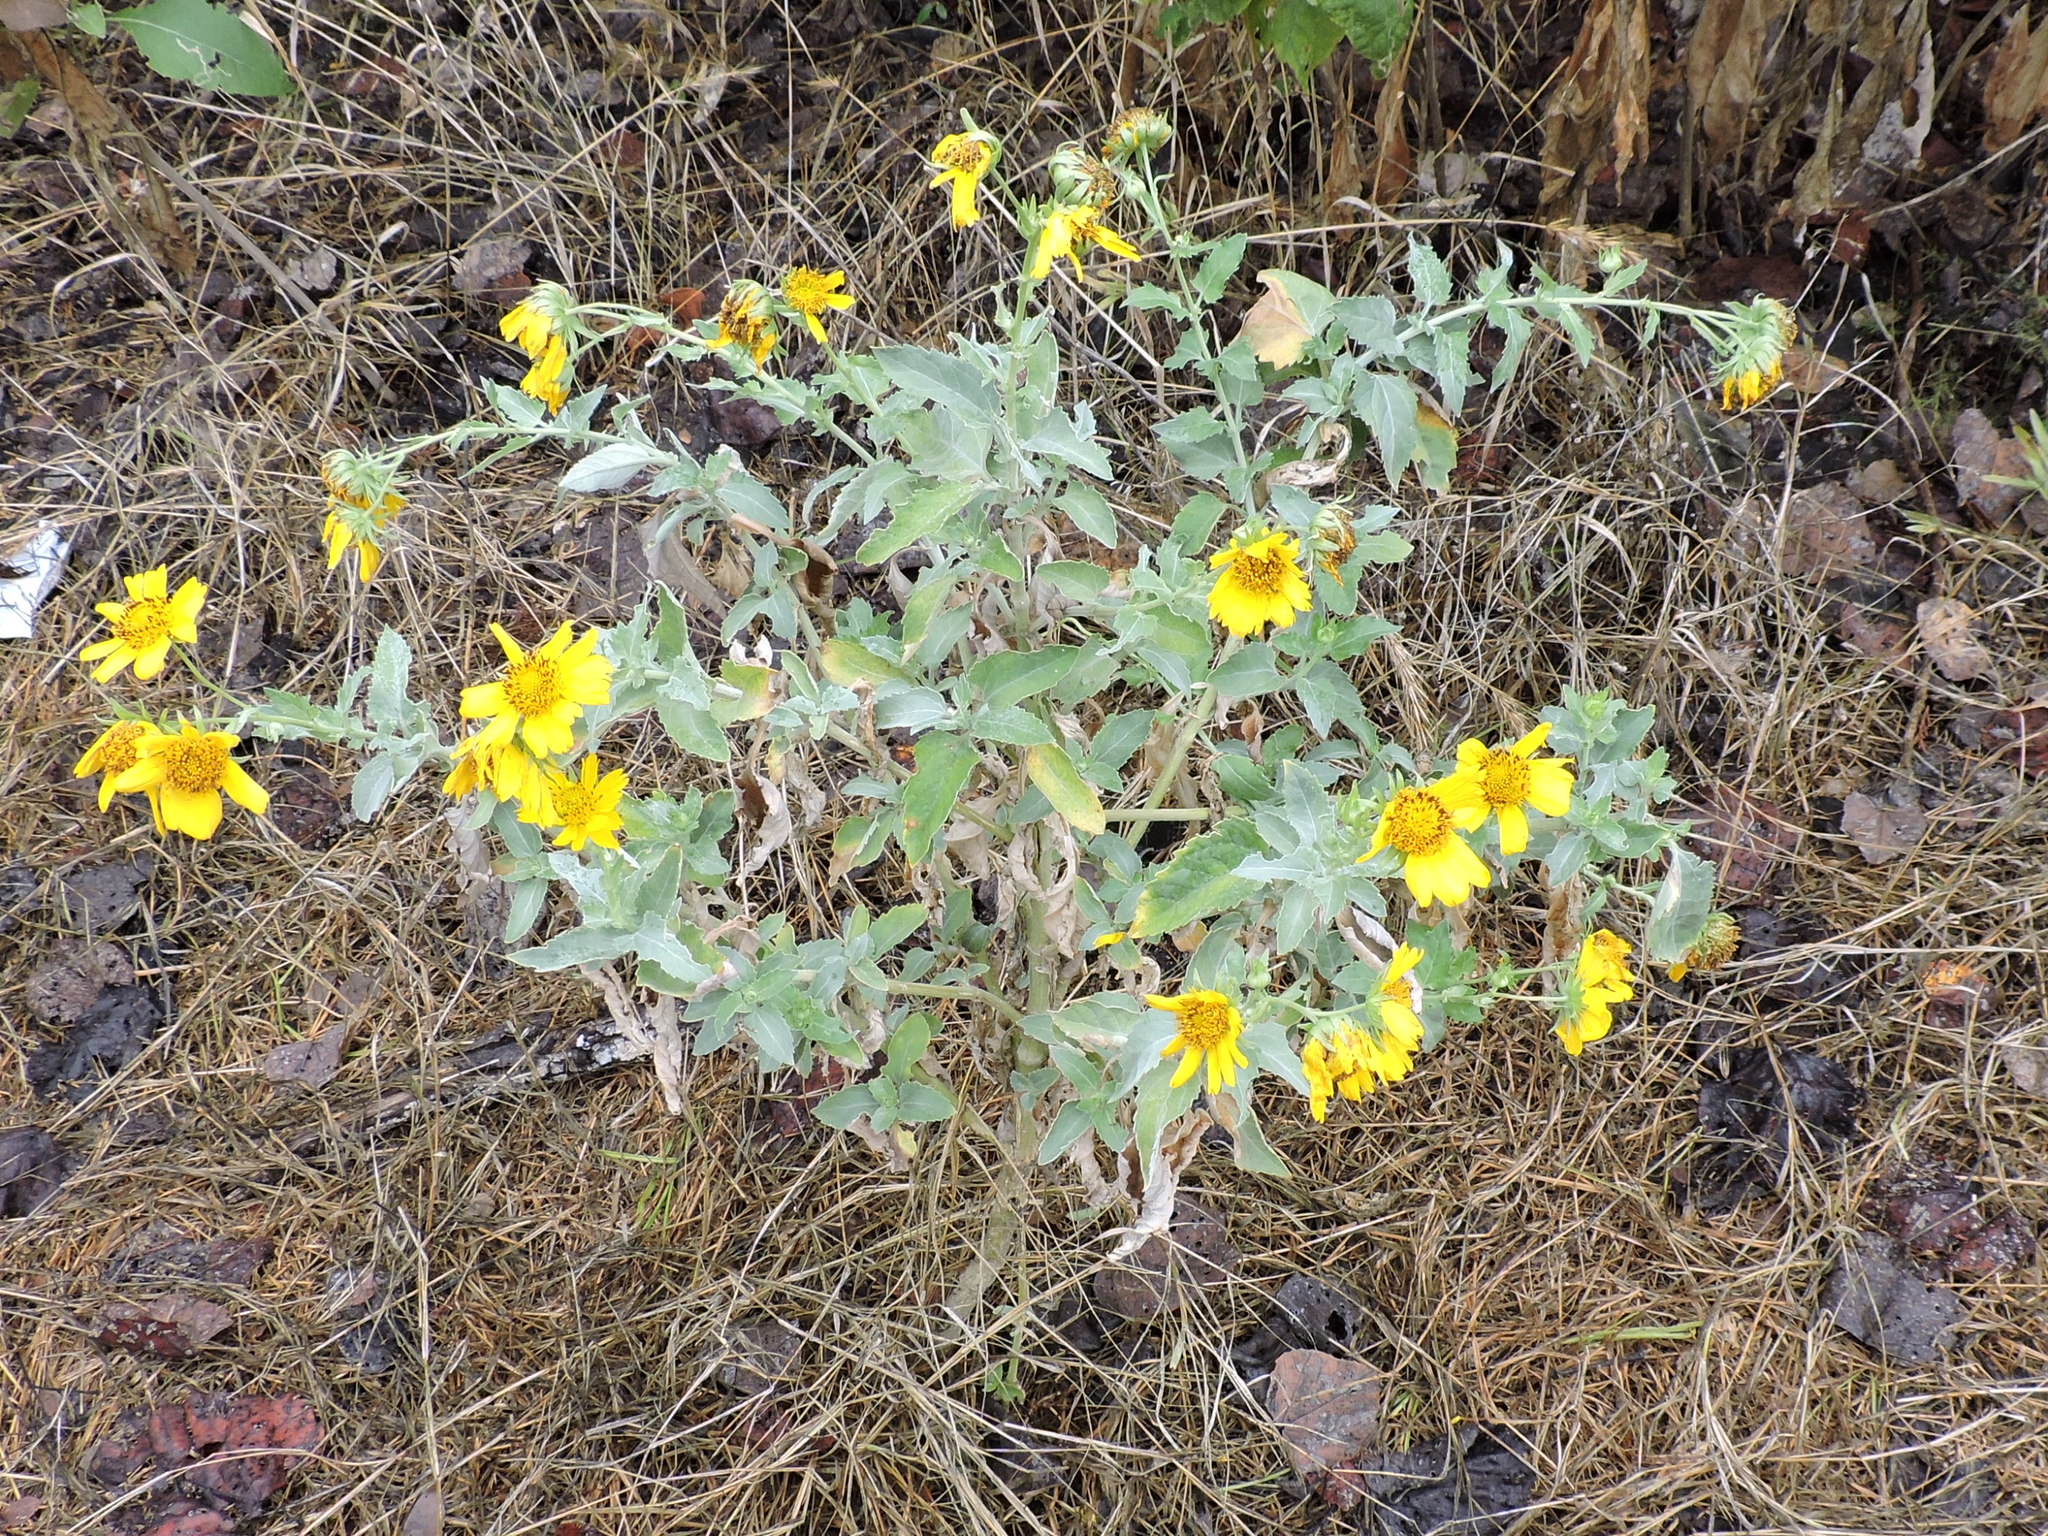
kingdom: Plantae
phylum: Tracheophyta
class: Magnoliopsida
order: Asterales
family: Asteraceae
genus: Verbesina
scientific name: Verbesina encelioides
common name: Golden crownbeard
